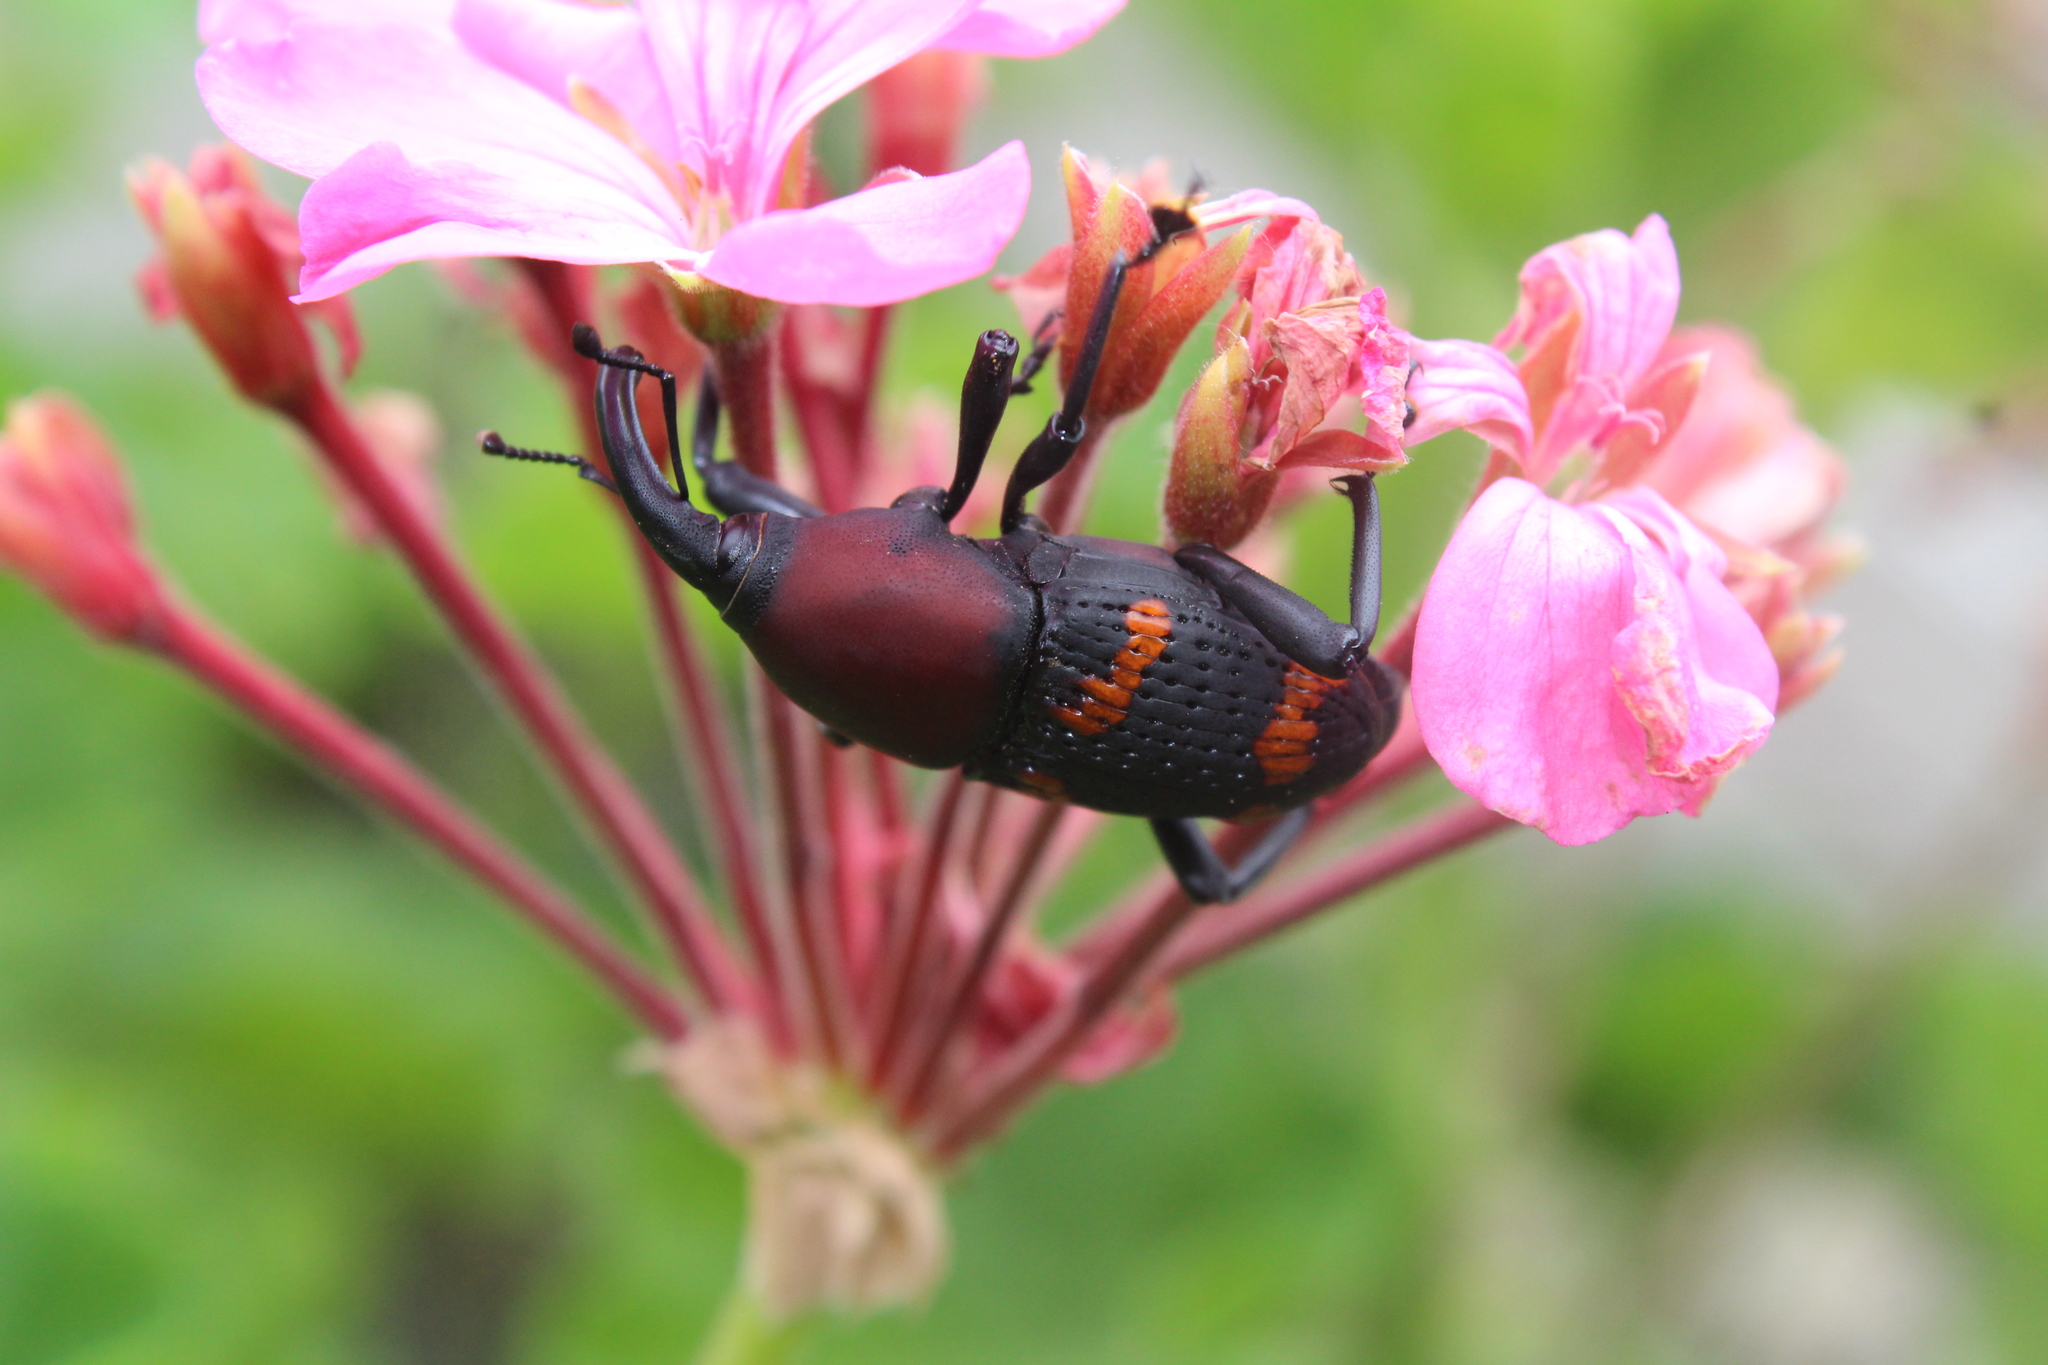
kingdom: Animalia
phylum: Arthropoda
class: Insecta
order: Coleoptera
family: Dryophthoridae
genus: Cactophagus
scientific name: Cactophagus
